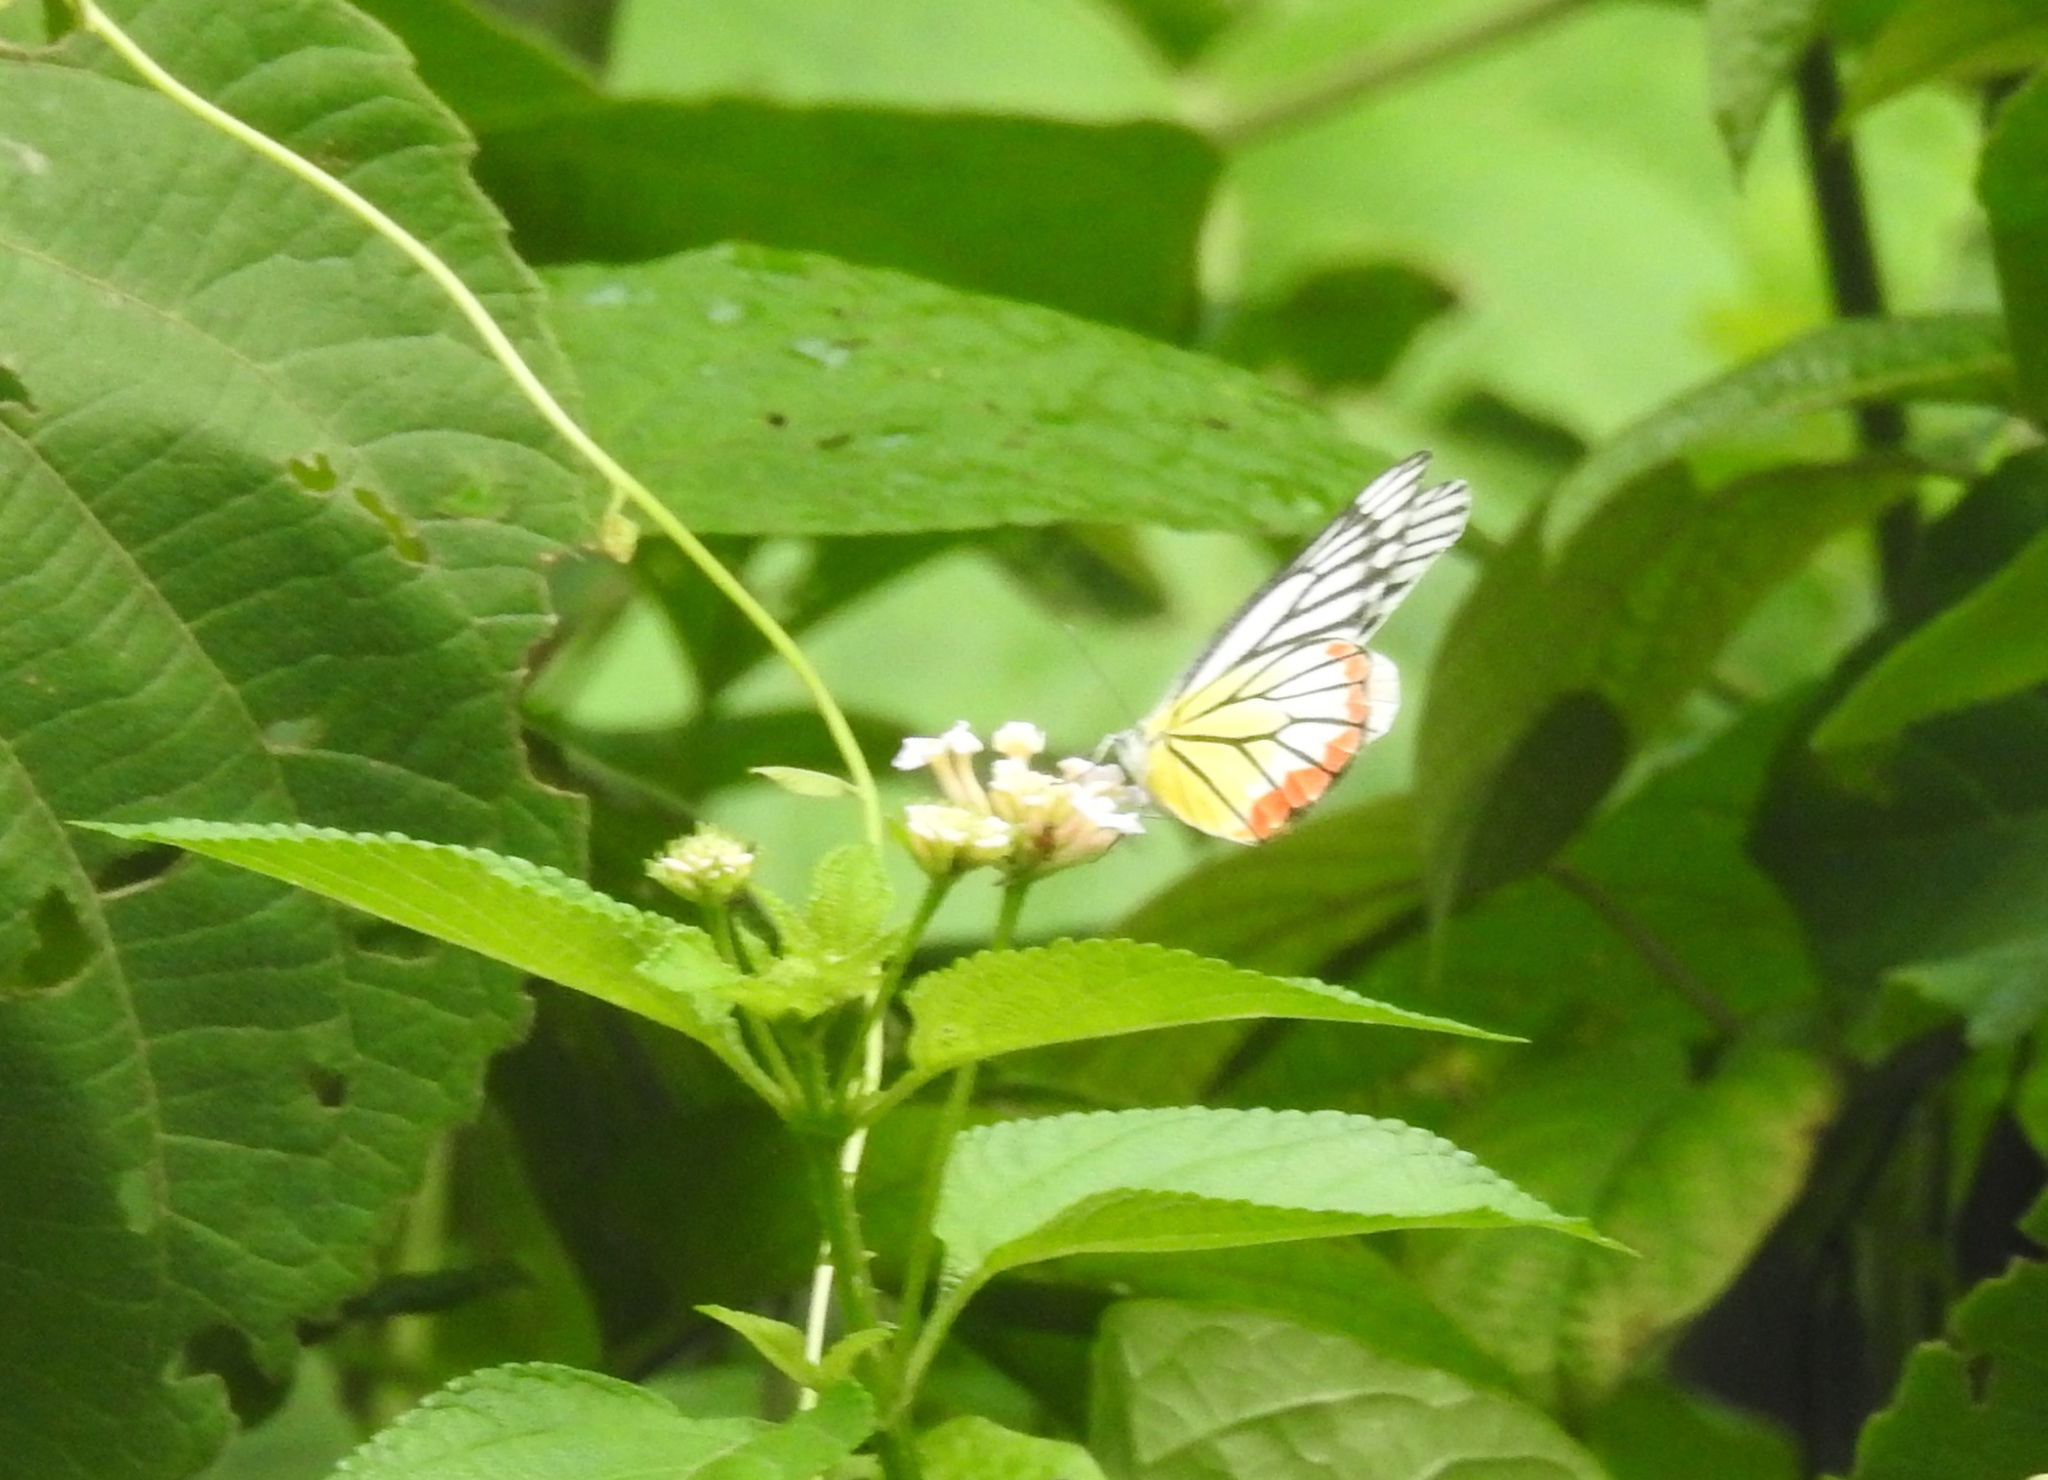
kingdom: Animalia
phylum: Arthropoda
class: Insecta
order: Lepidoptera
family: Pieridae
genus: Delias
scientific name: Delias hyparete
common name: Painted jezebel
